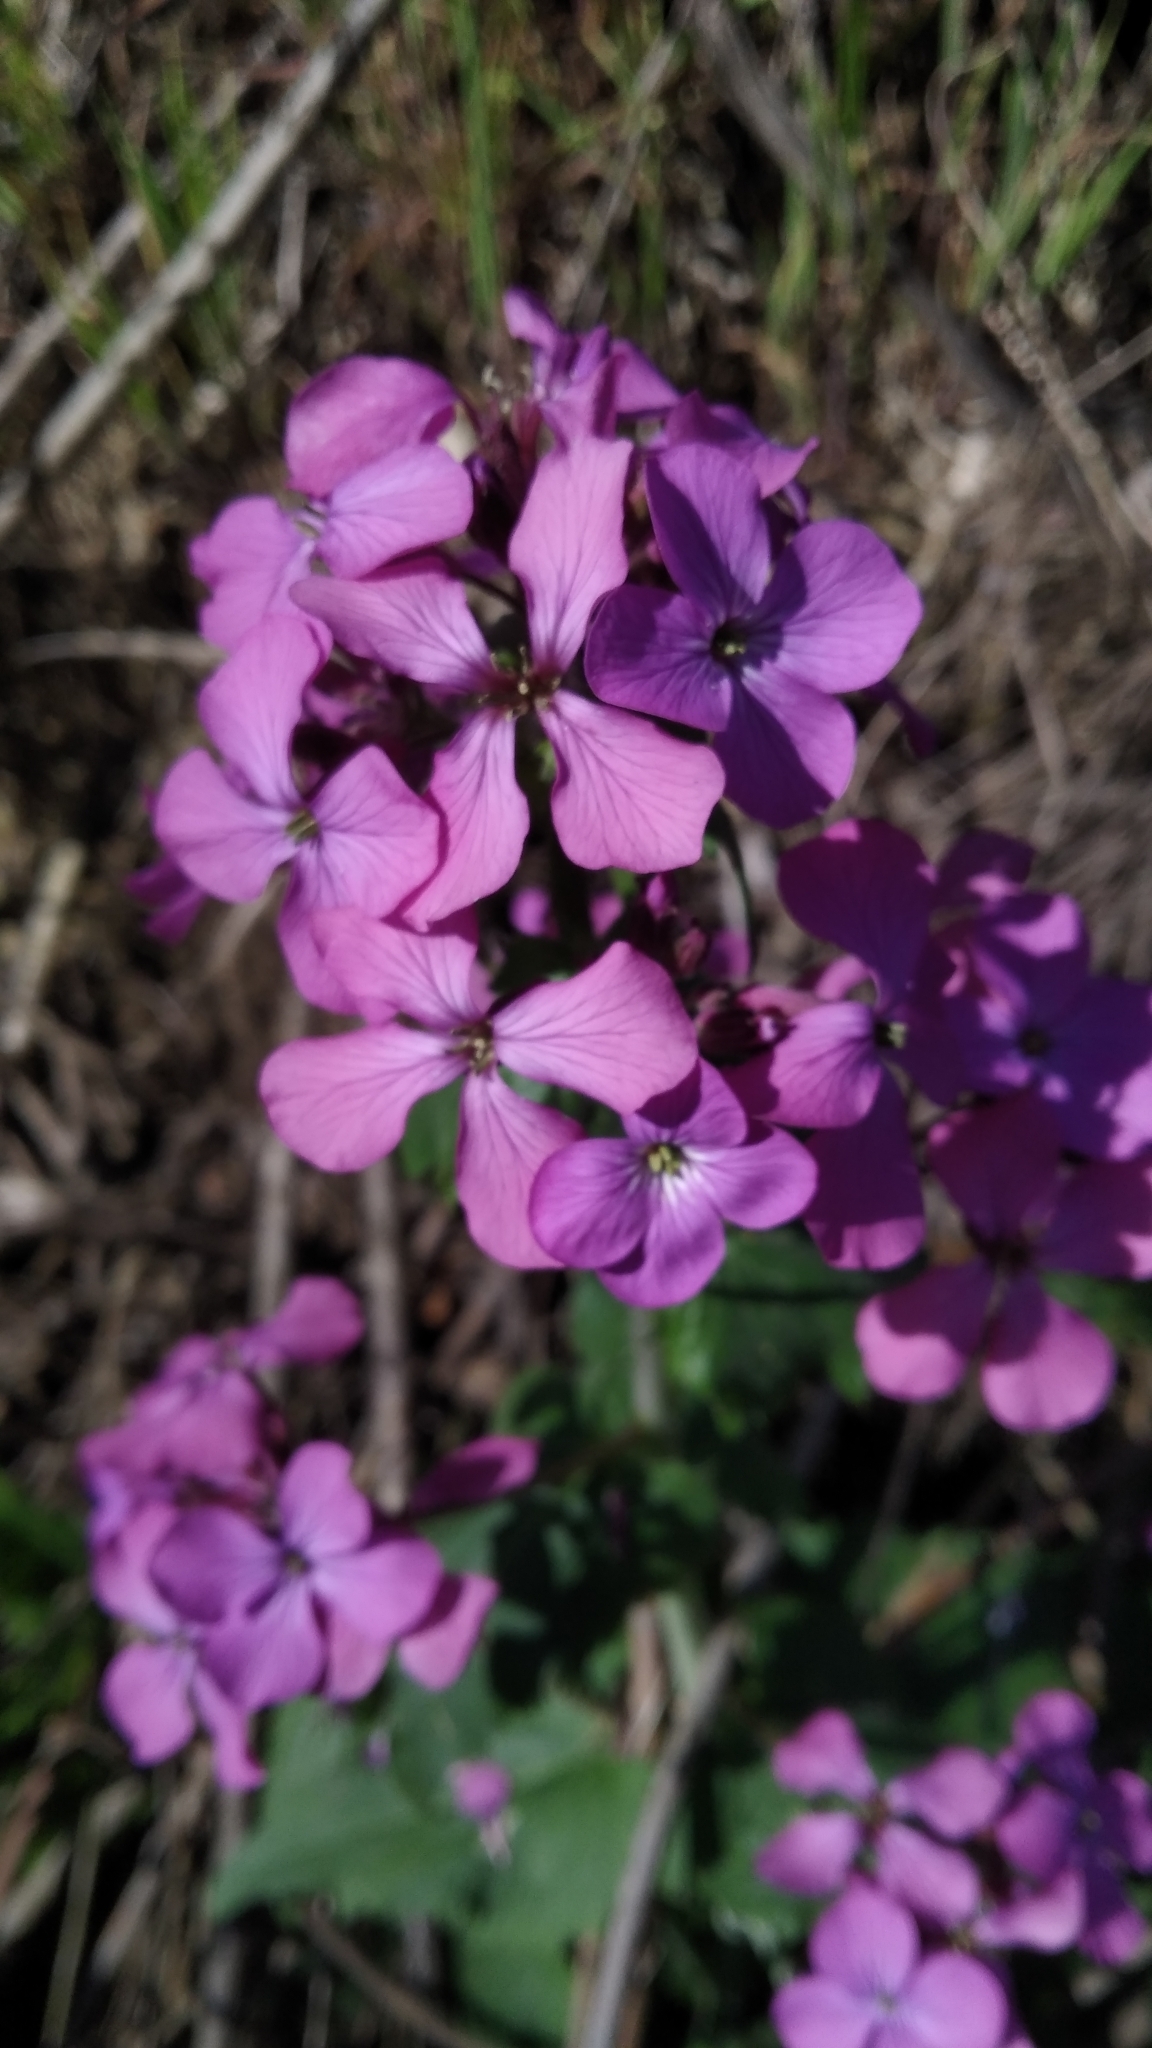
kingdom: Plantae
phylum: Tracheophyta
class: Magnoliopsida
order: Brassicales
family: Brassicaceae
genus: Lunaria
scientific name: Lunaria annua
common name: Honesty
